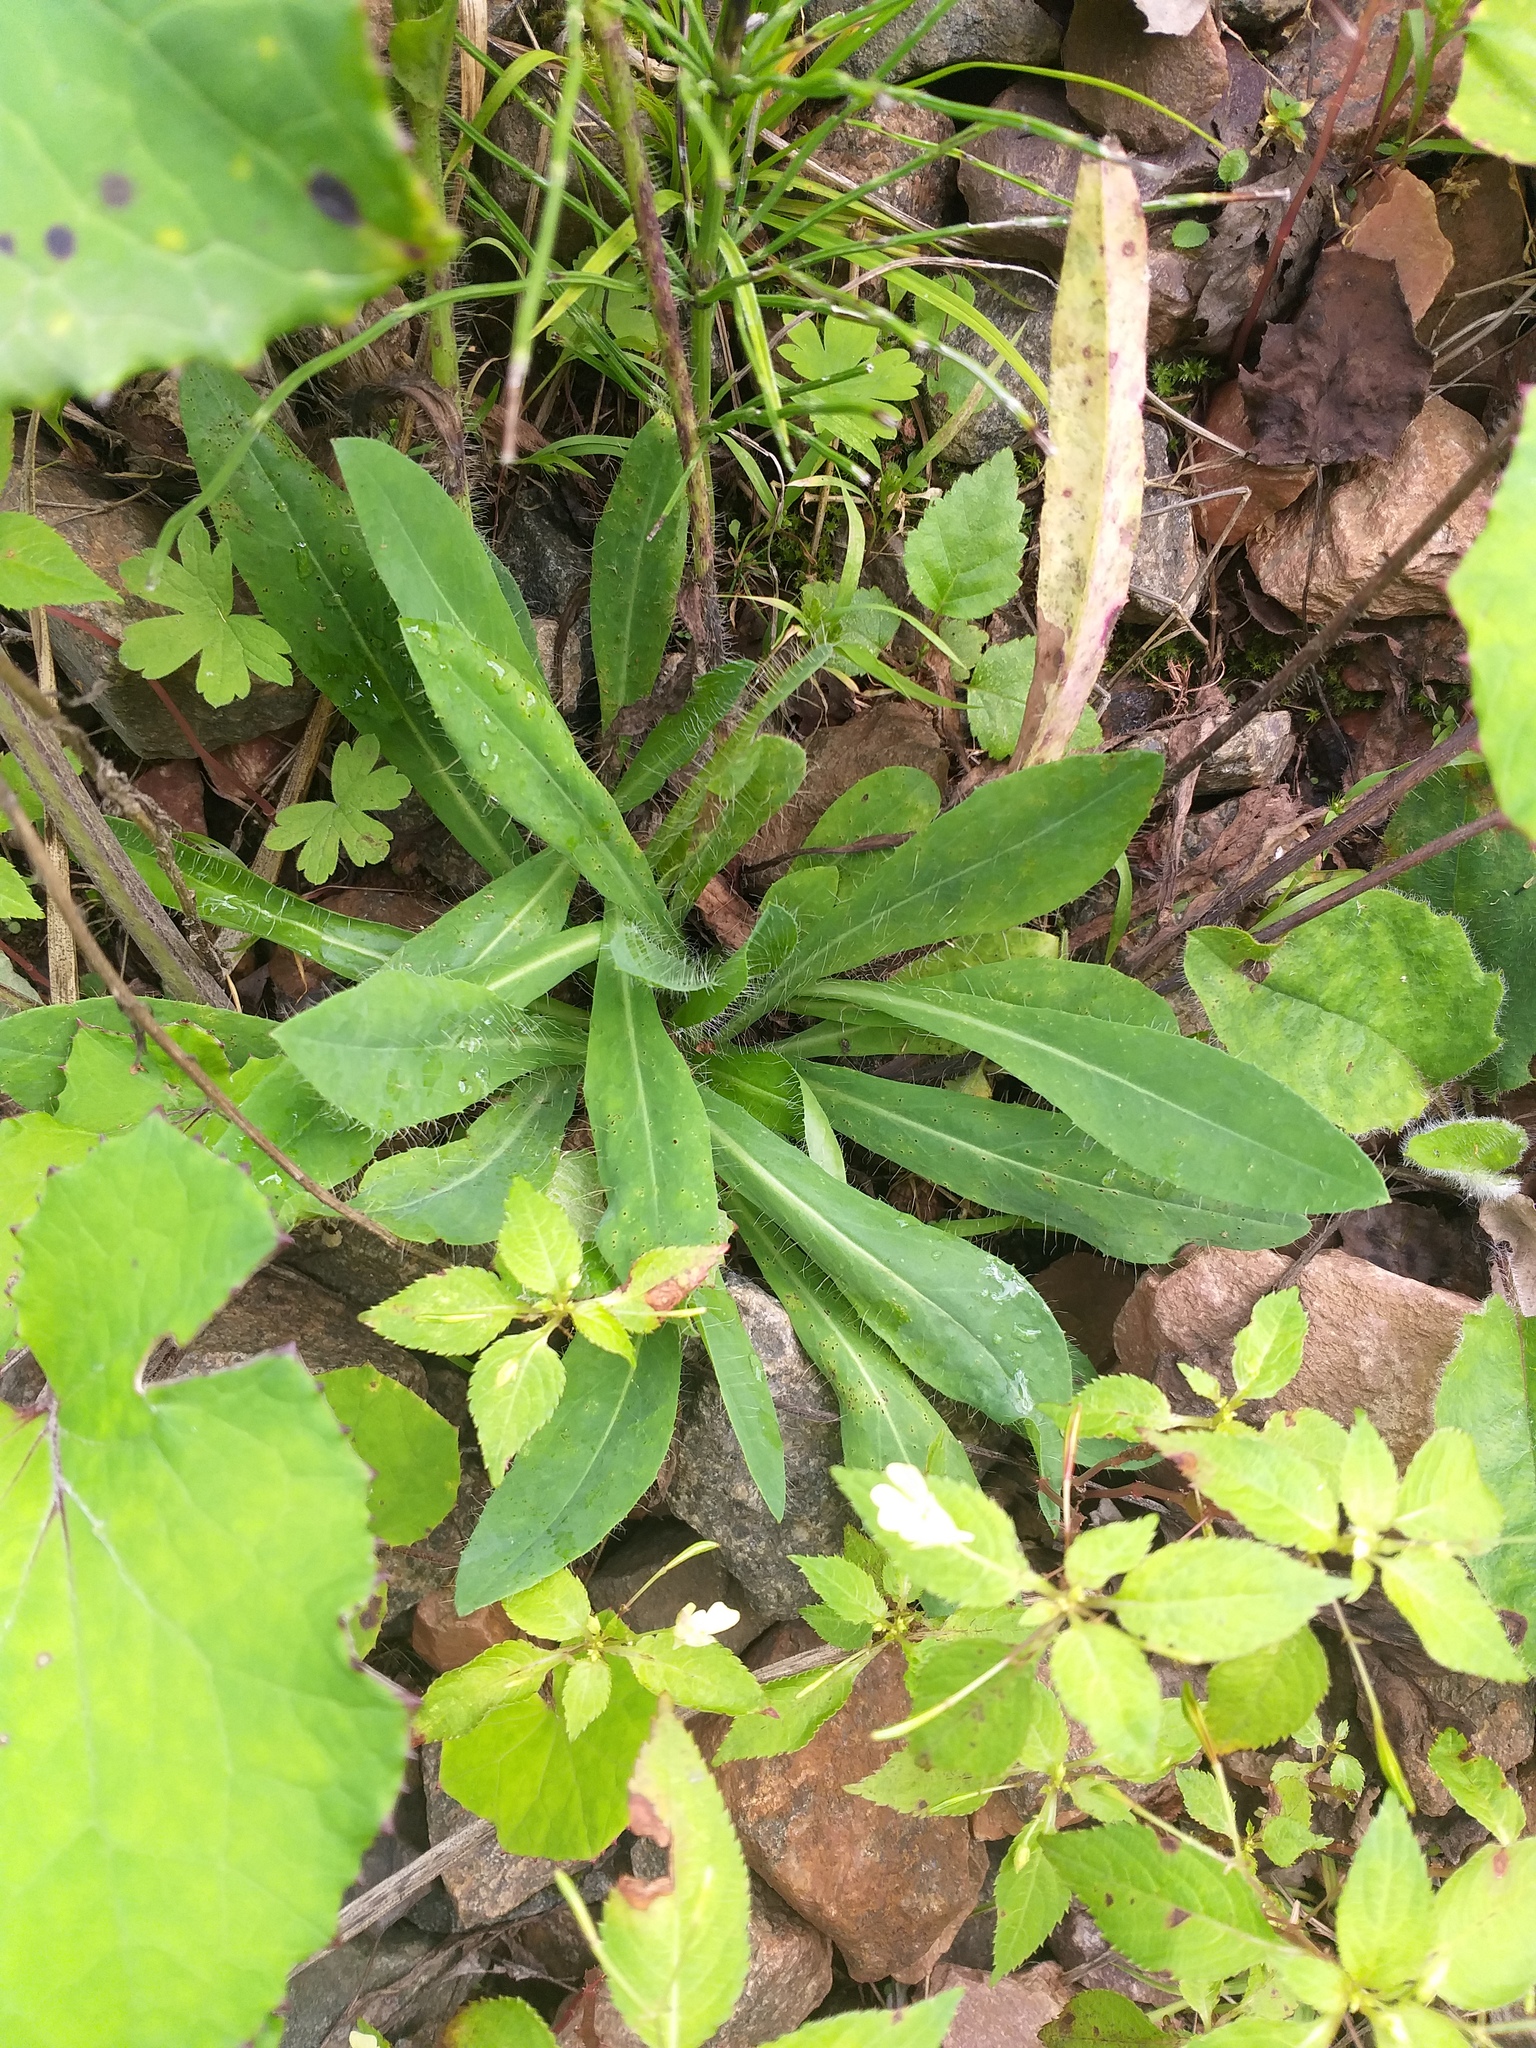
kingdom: Plantae
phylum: Tracheophyta
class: Magnoliopsida
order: Asterales
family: Asteraceae
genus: Pilosella
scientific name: Pilosella
